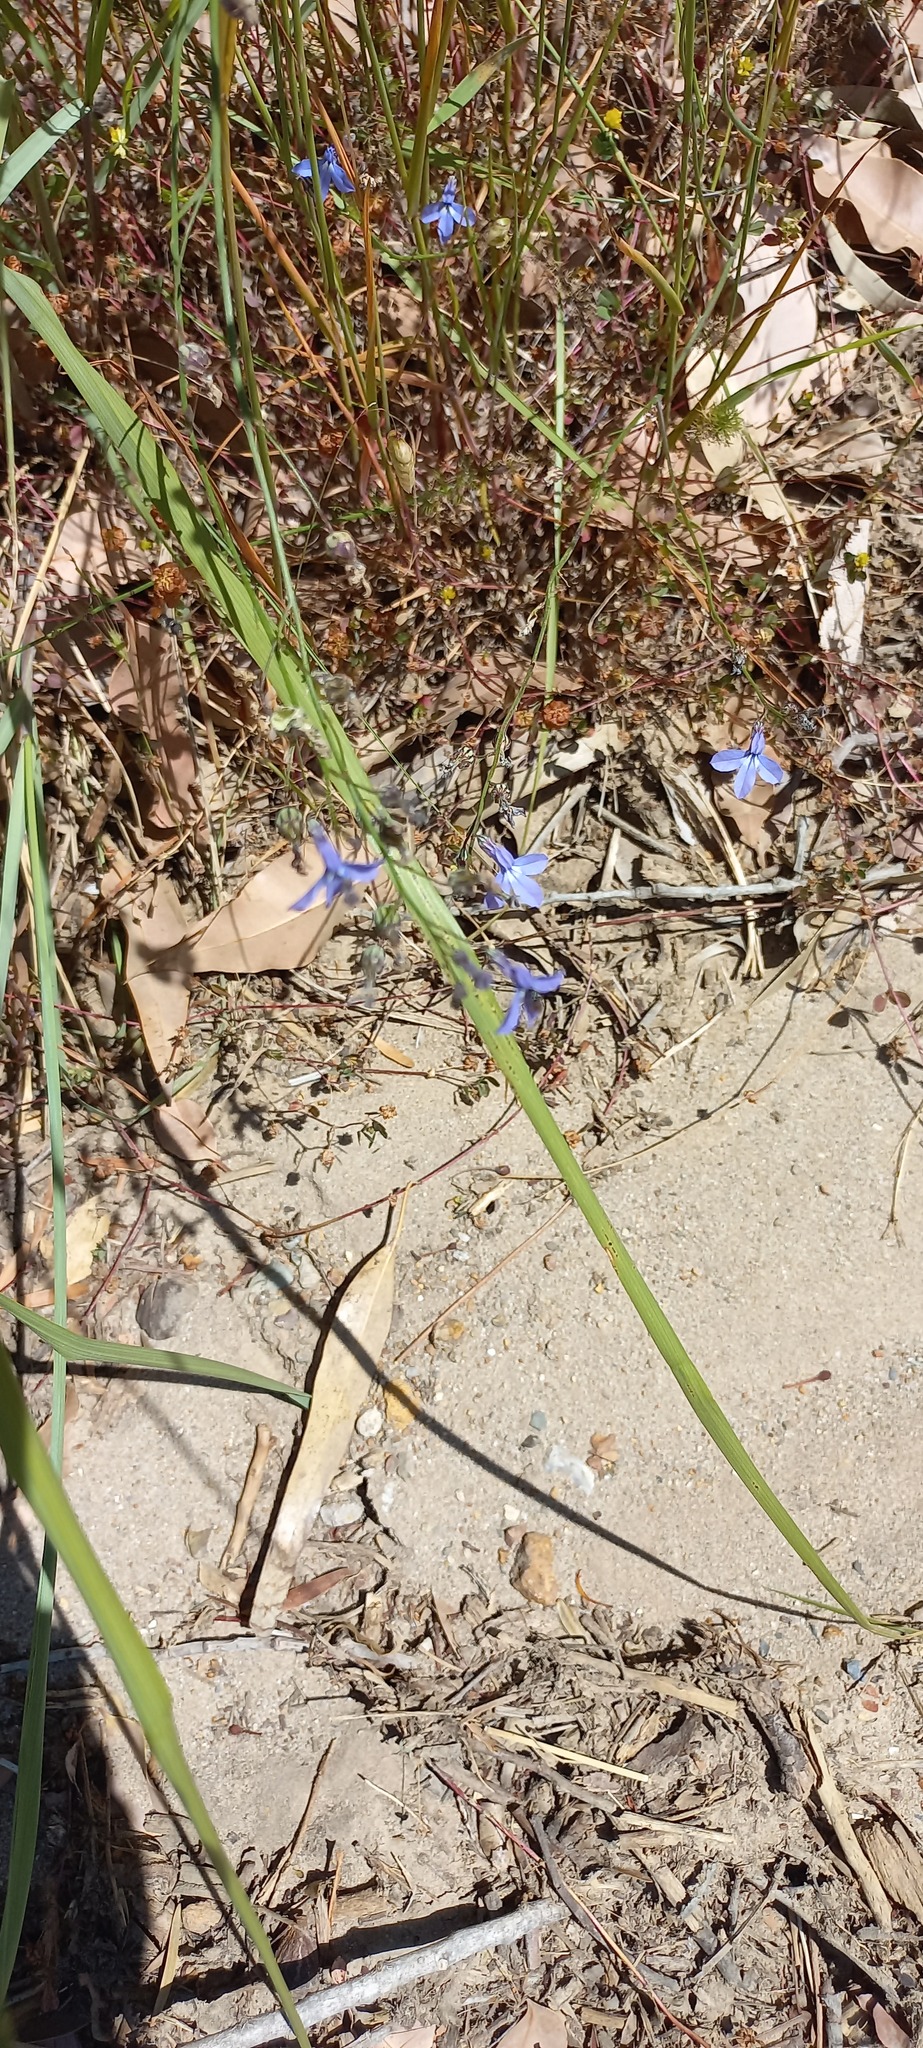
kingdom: Plantae
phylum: Tracheophyta
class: Magnoliopsida
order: Asterales
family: Campanulaceae
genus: Lobelia
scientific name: Lobelia setacea
